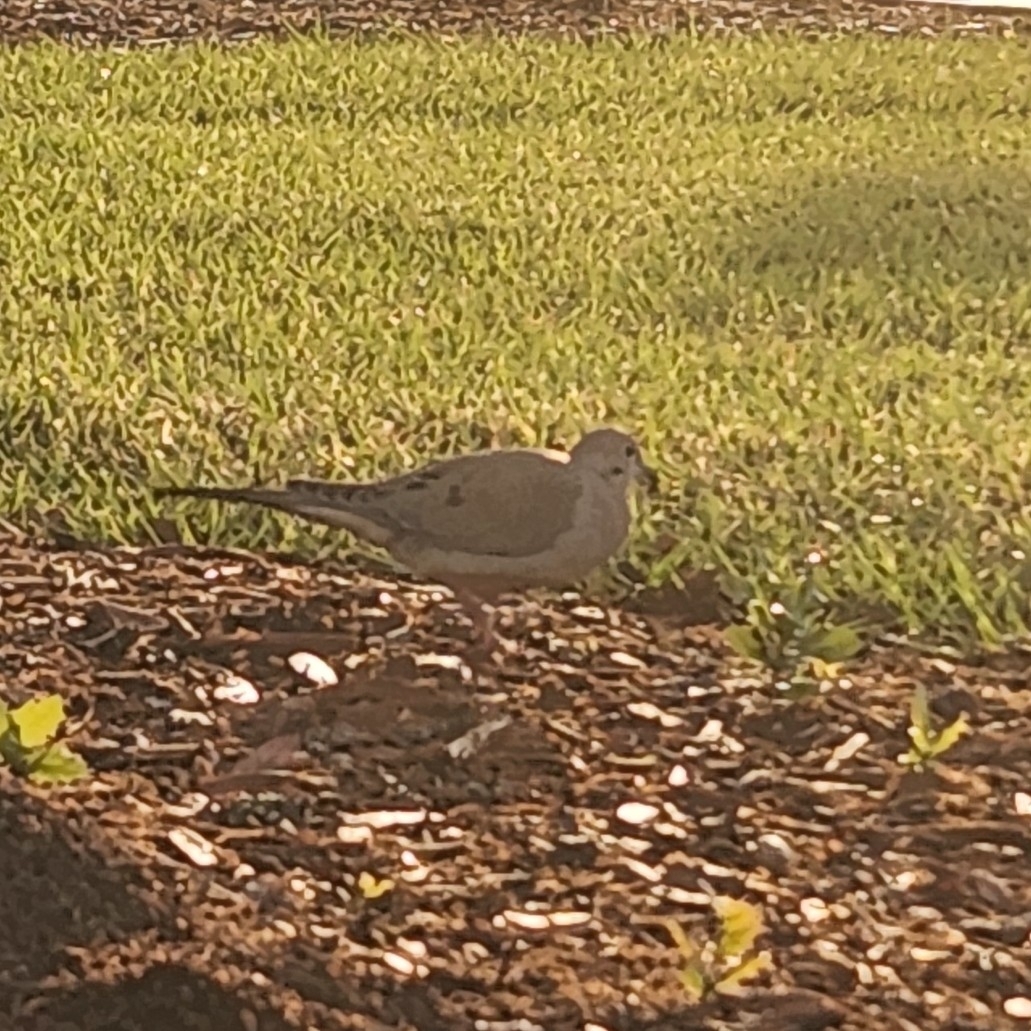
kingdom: Animalia
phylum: Chordata
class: Aves
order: Columbiformes
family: Columbidae
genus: Zenaida
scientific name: Zenaida macroura
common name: Mourning dove
